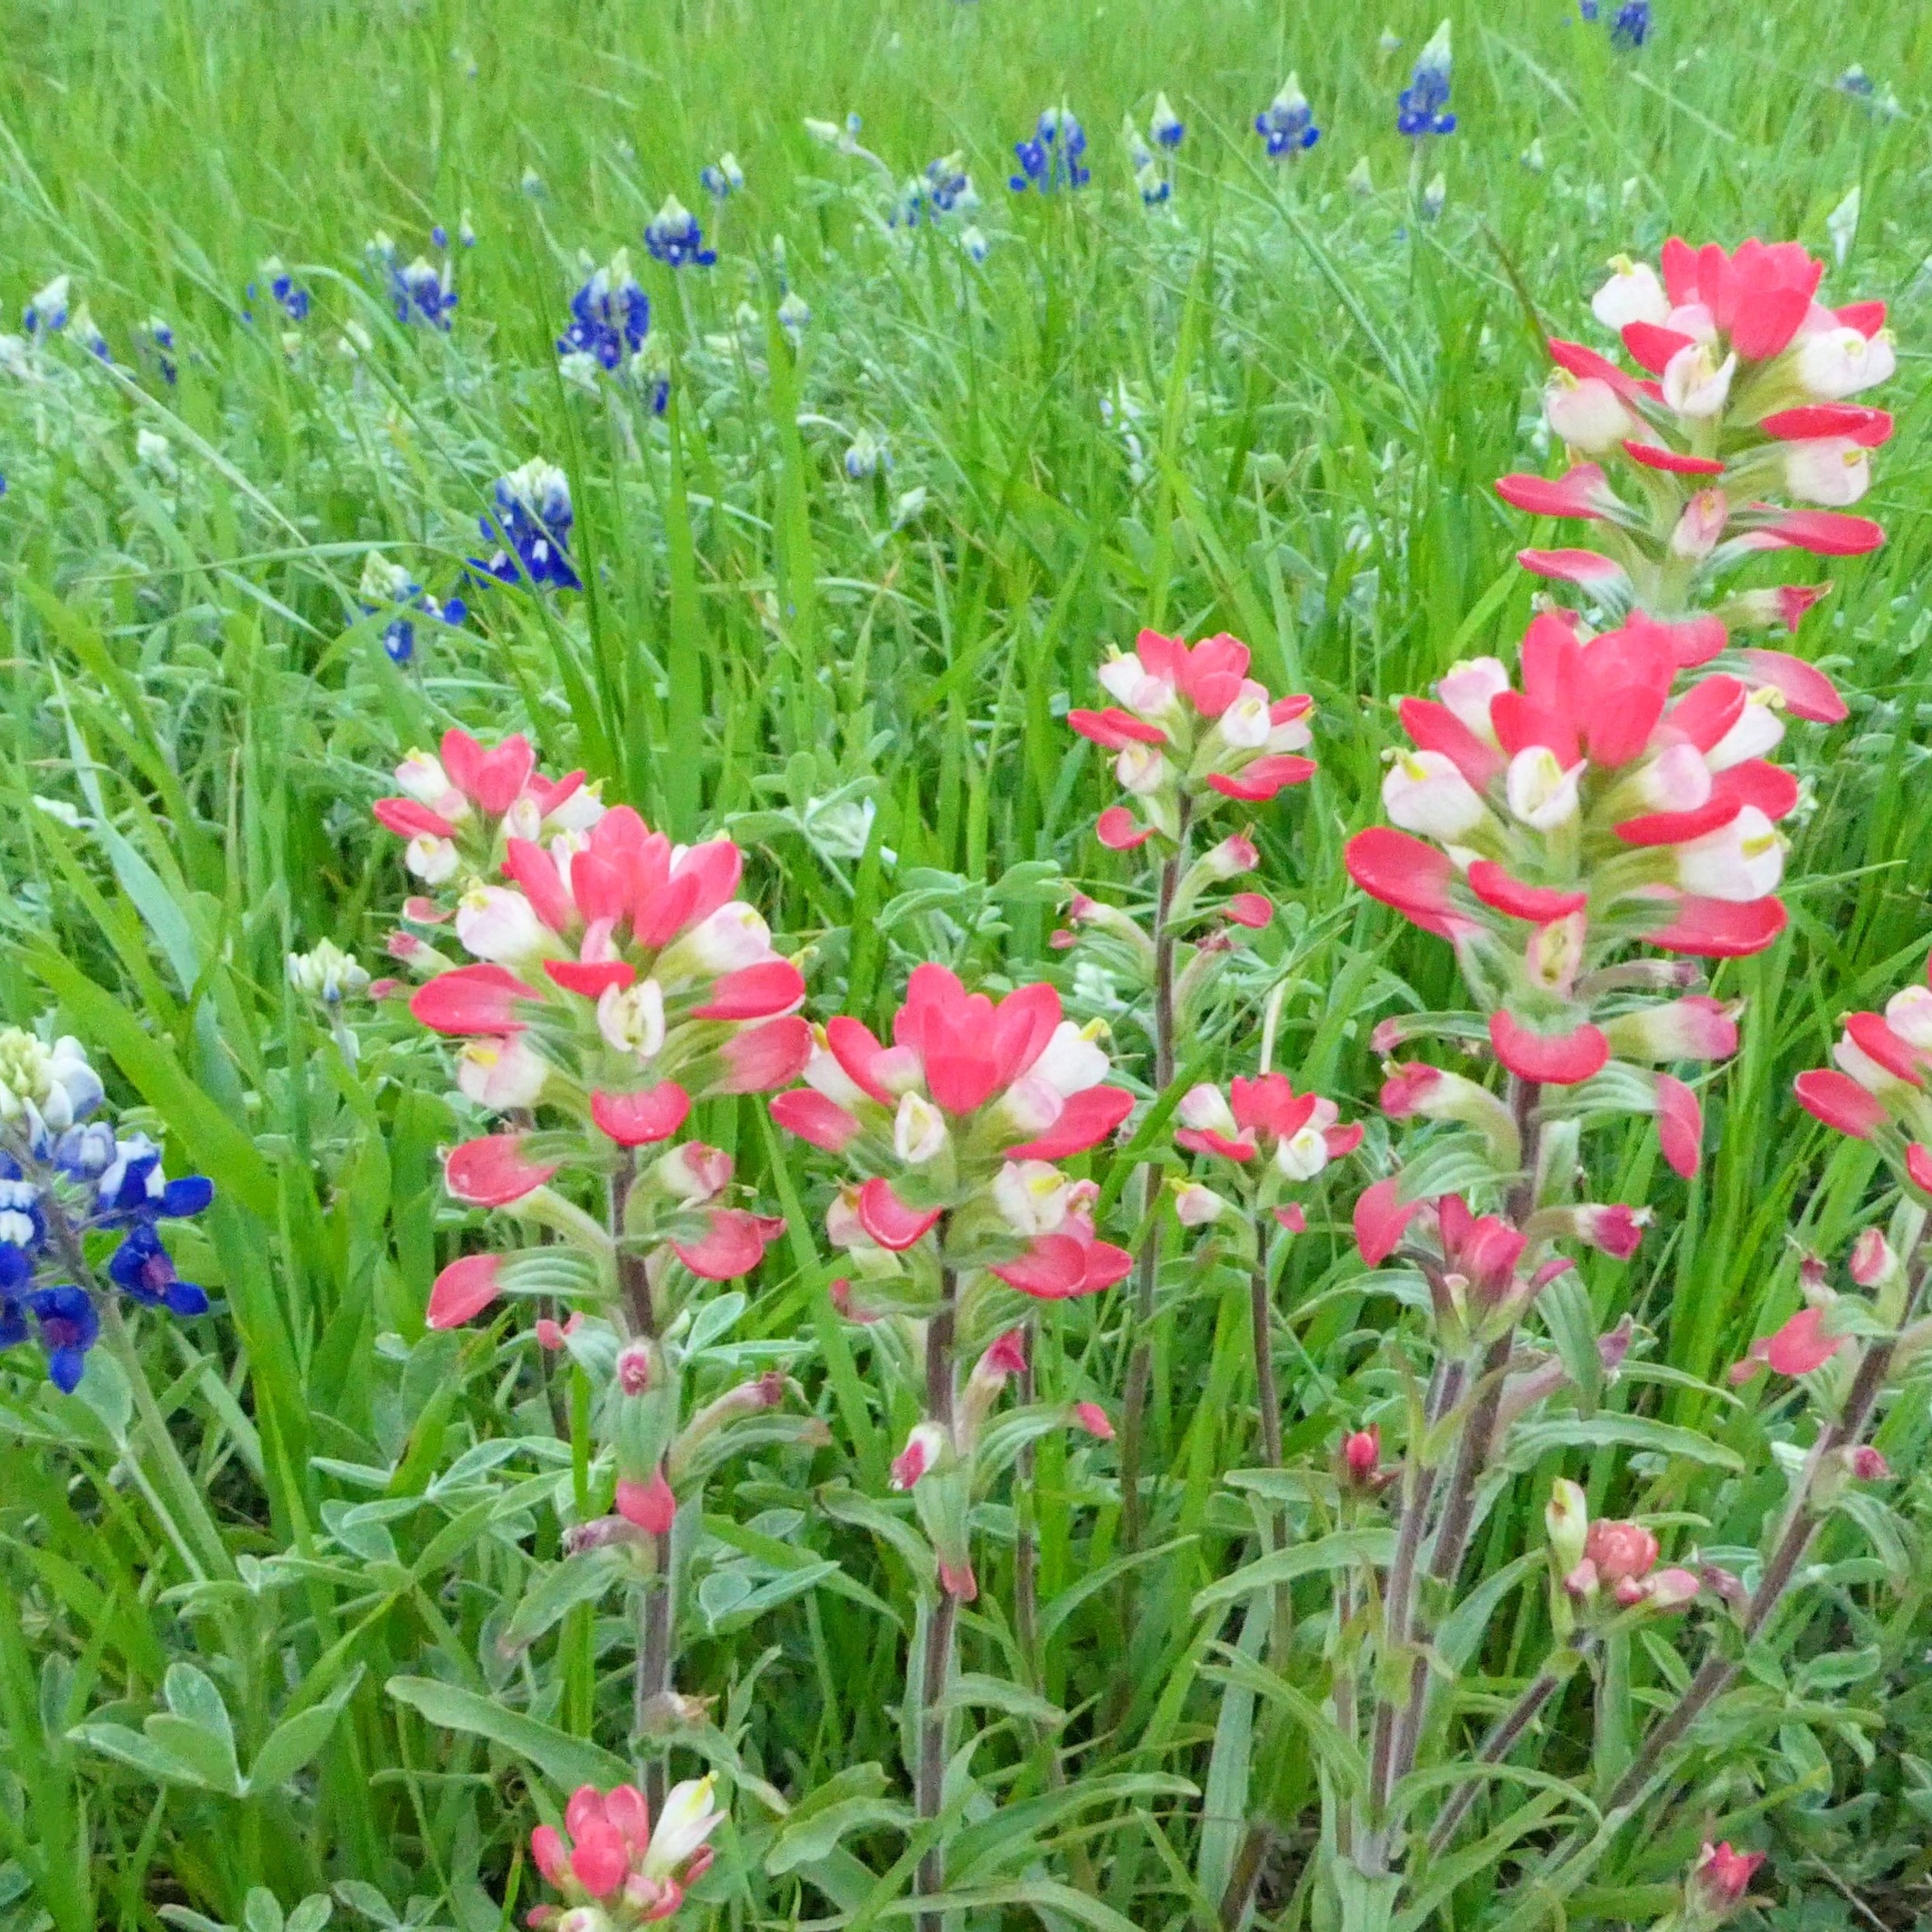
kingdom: Plantae
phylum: Tracheophyta
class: Magnoliopsida
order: Lamiales
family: Orobanchaceae
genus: Castilleja
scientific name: Castilleja indivisa
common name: Texas paintbrush
